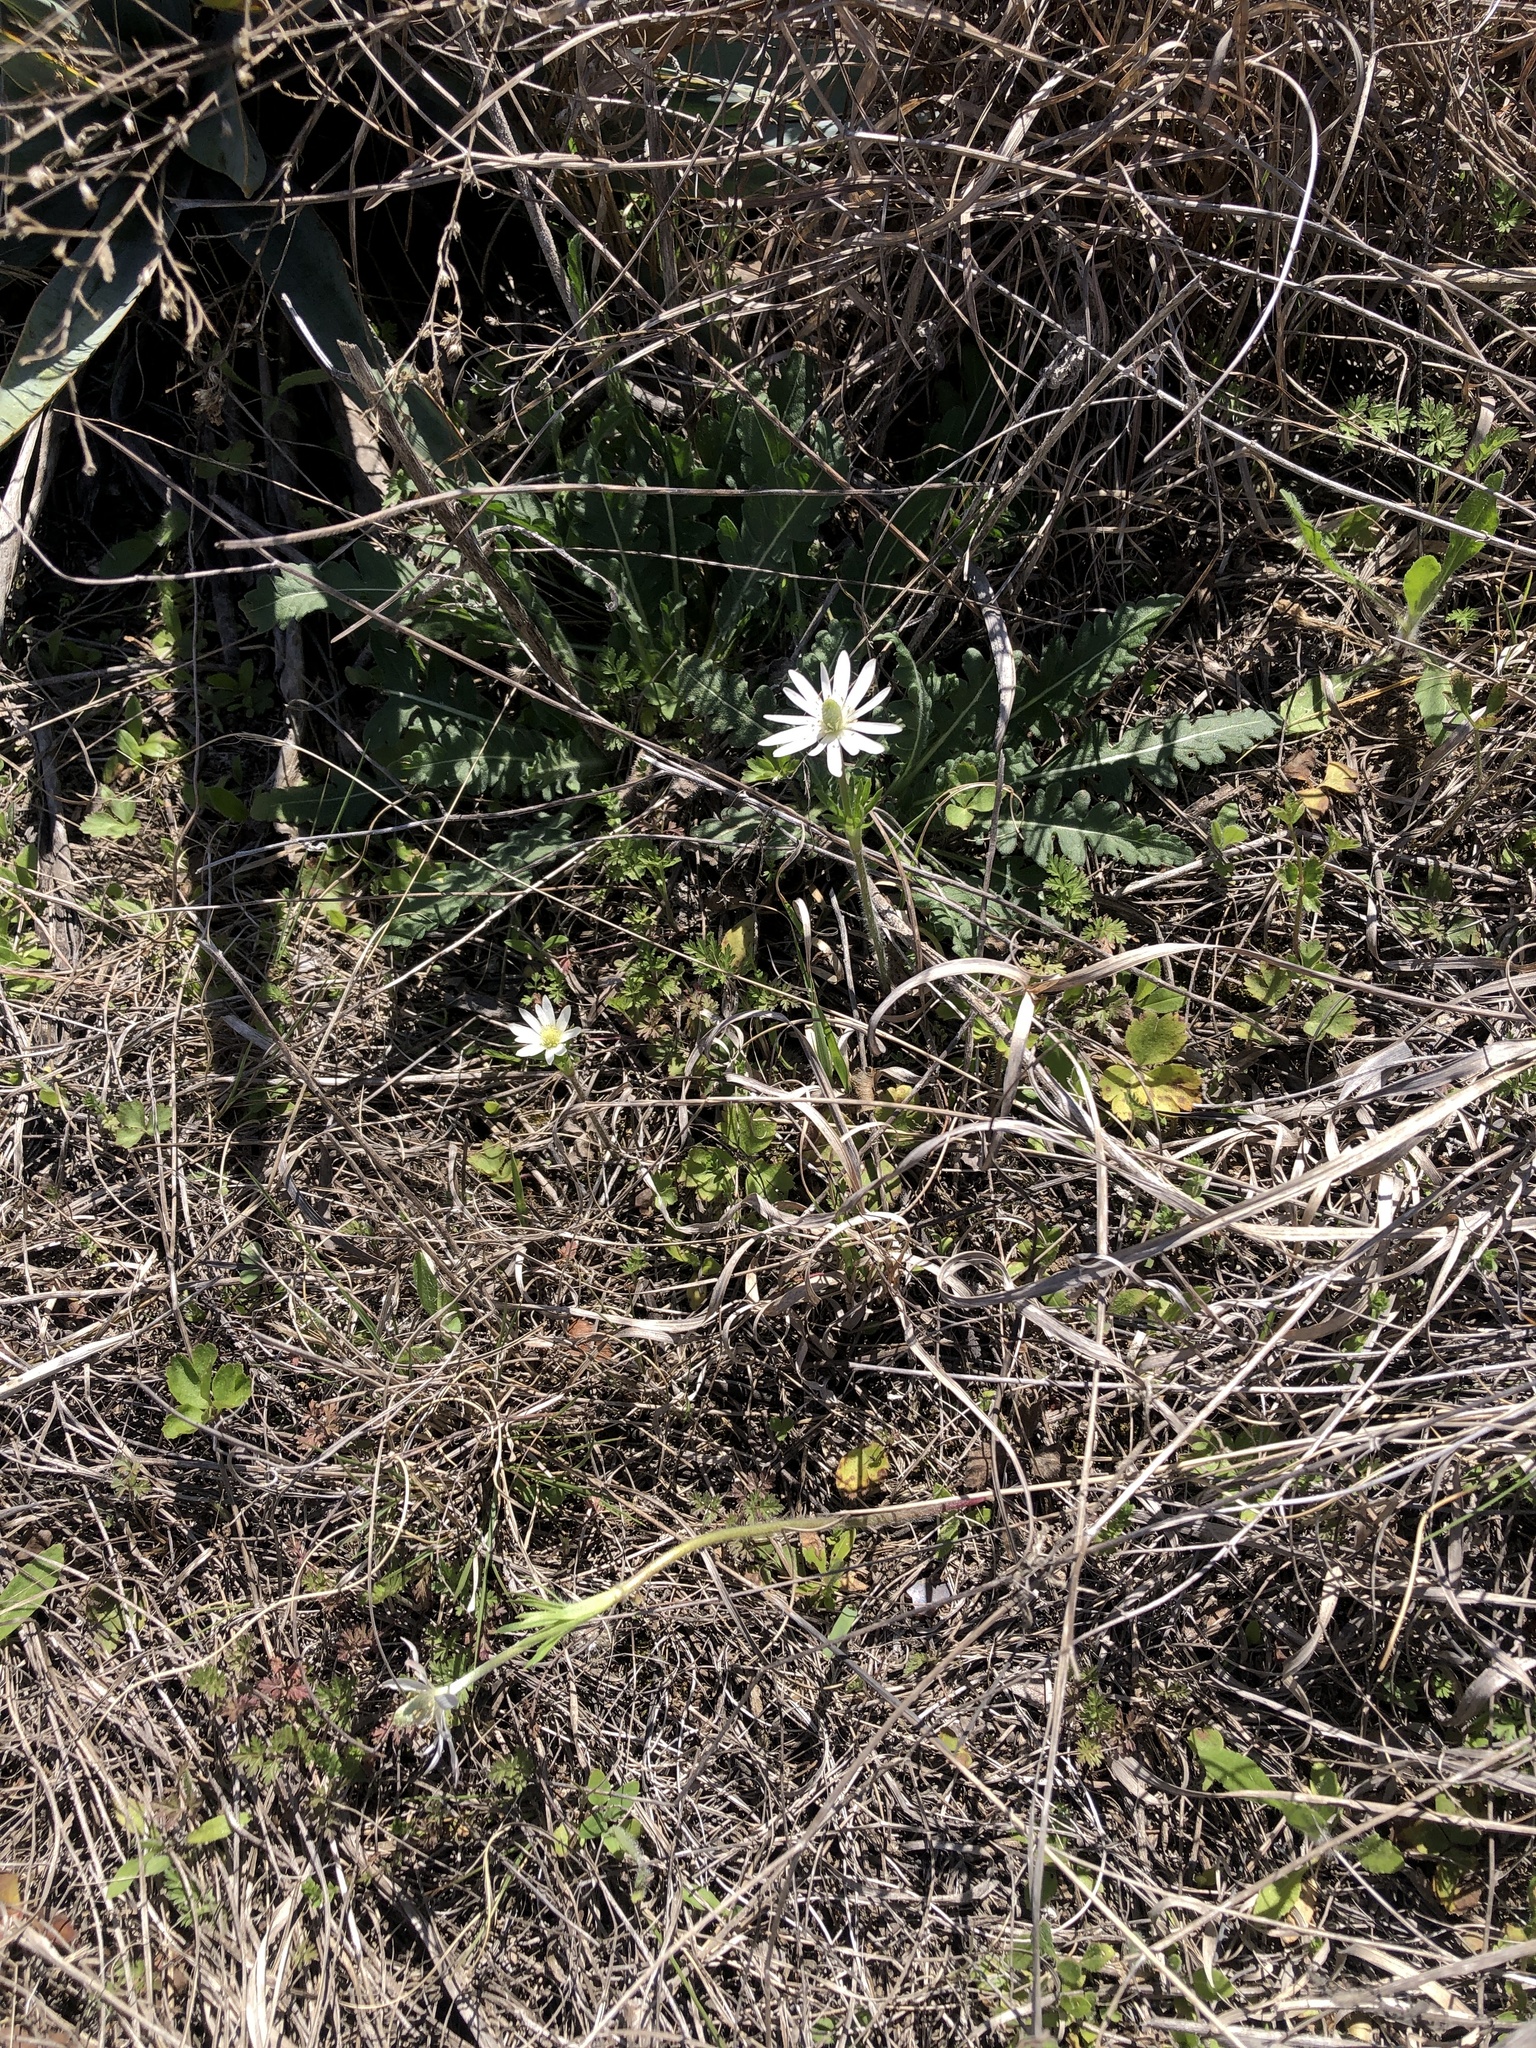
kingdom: Plantae
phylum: Tracheophyta
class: Magnoliopsida
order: Ranunculales
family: Ranunculaceae
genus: Anemone
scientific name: Anemone berlandieri
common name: Ten-petal anemone
